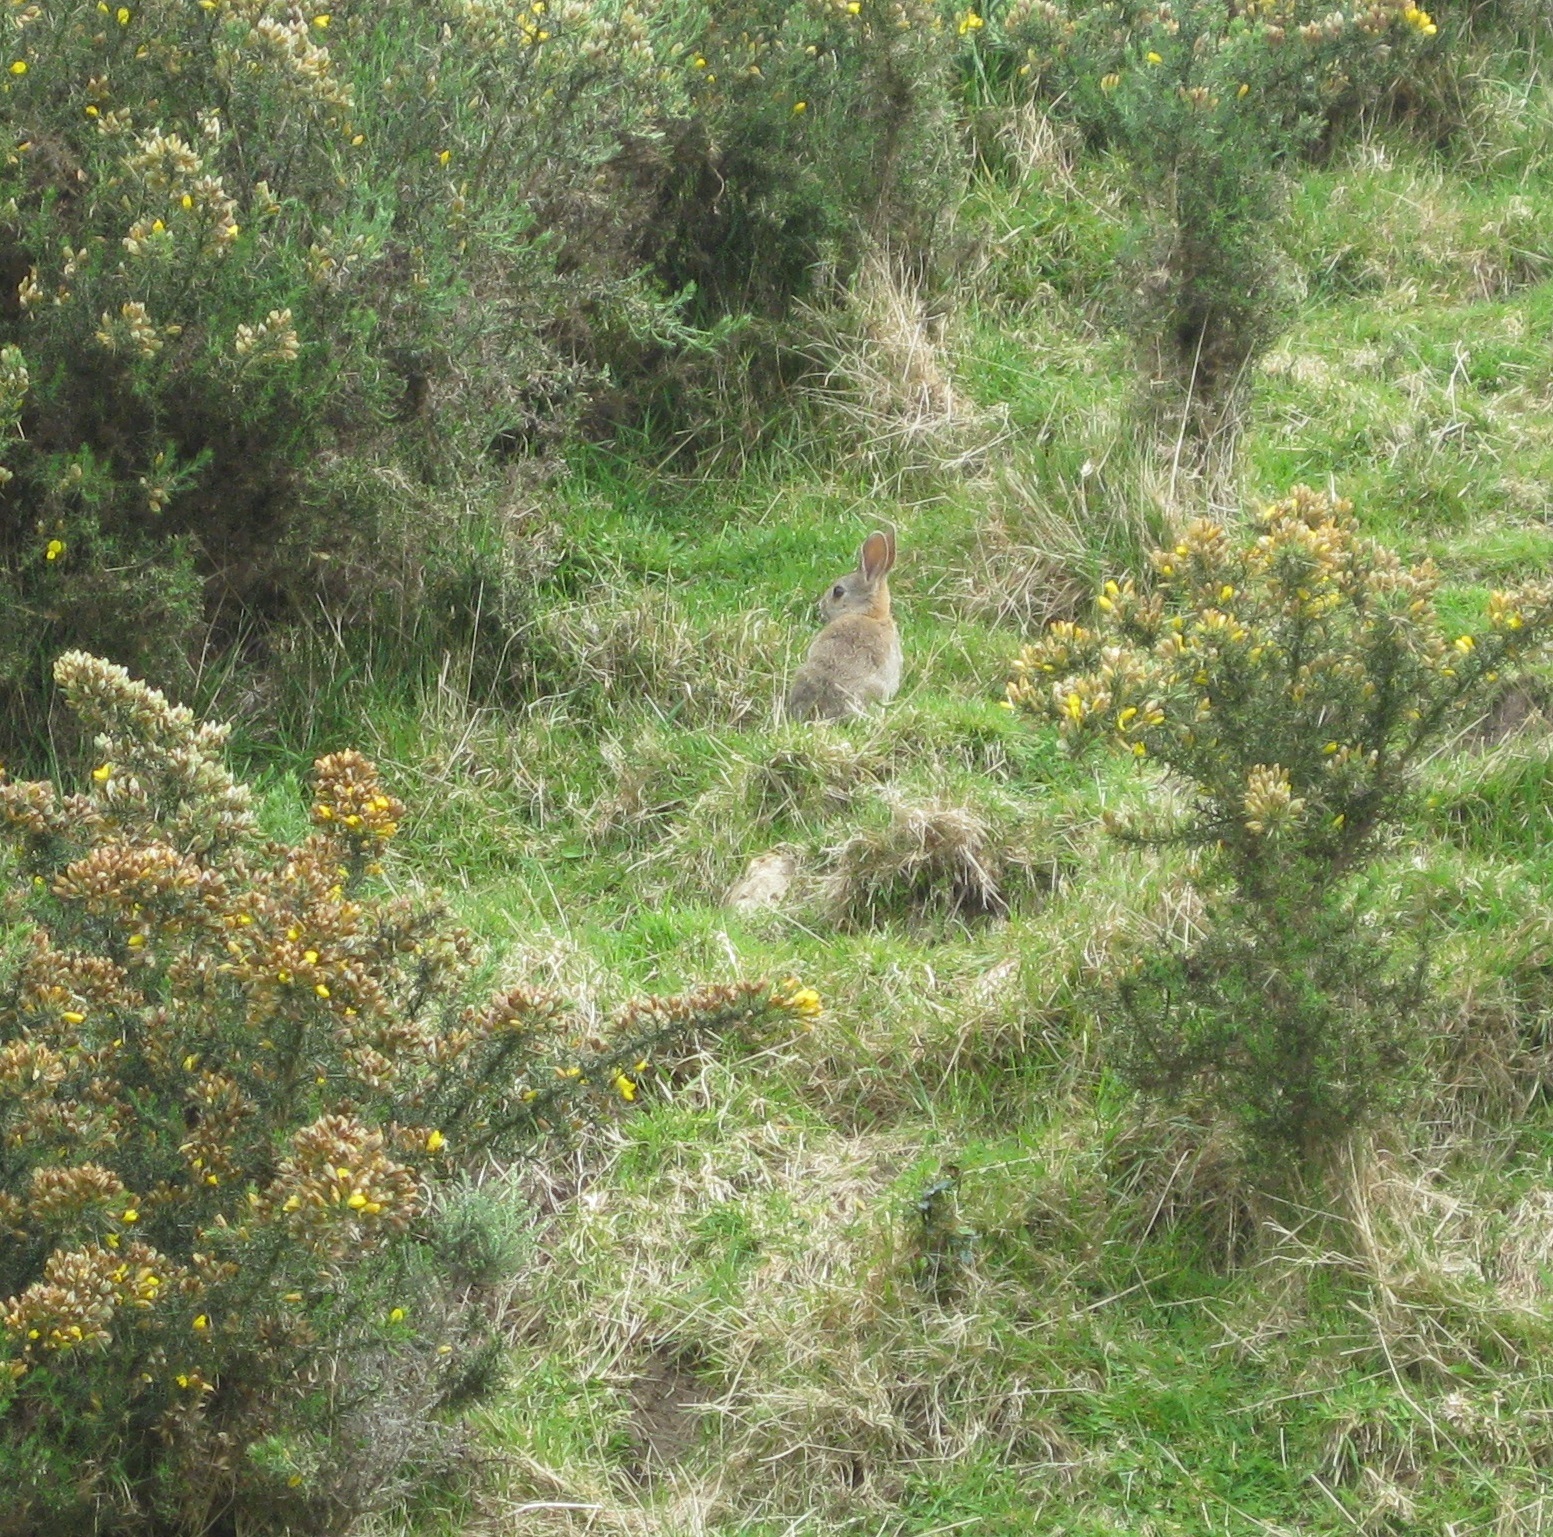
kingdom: Animalia
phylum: Chordata
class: Mammalia
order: Lagomorpha
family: Leporidae
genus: Oryctolagus
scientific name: Oryctolagus cuniculus
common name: European rabbit
